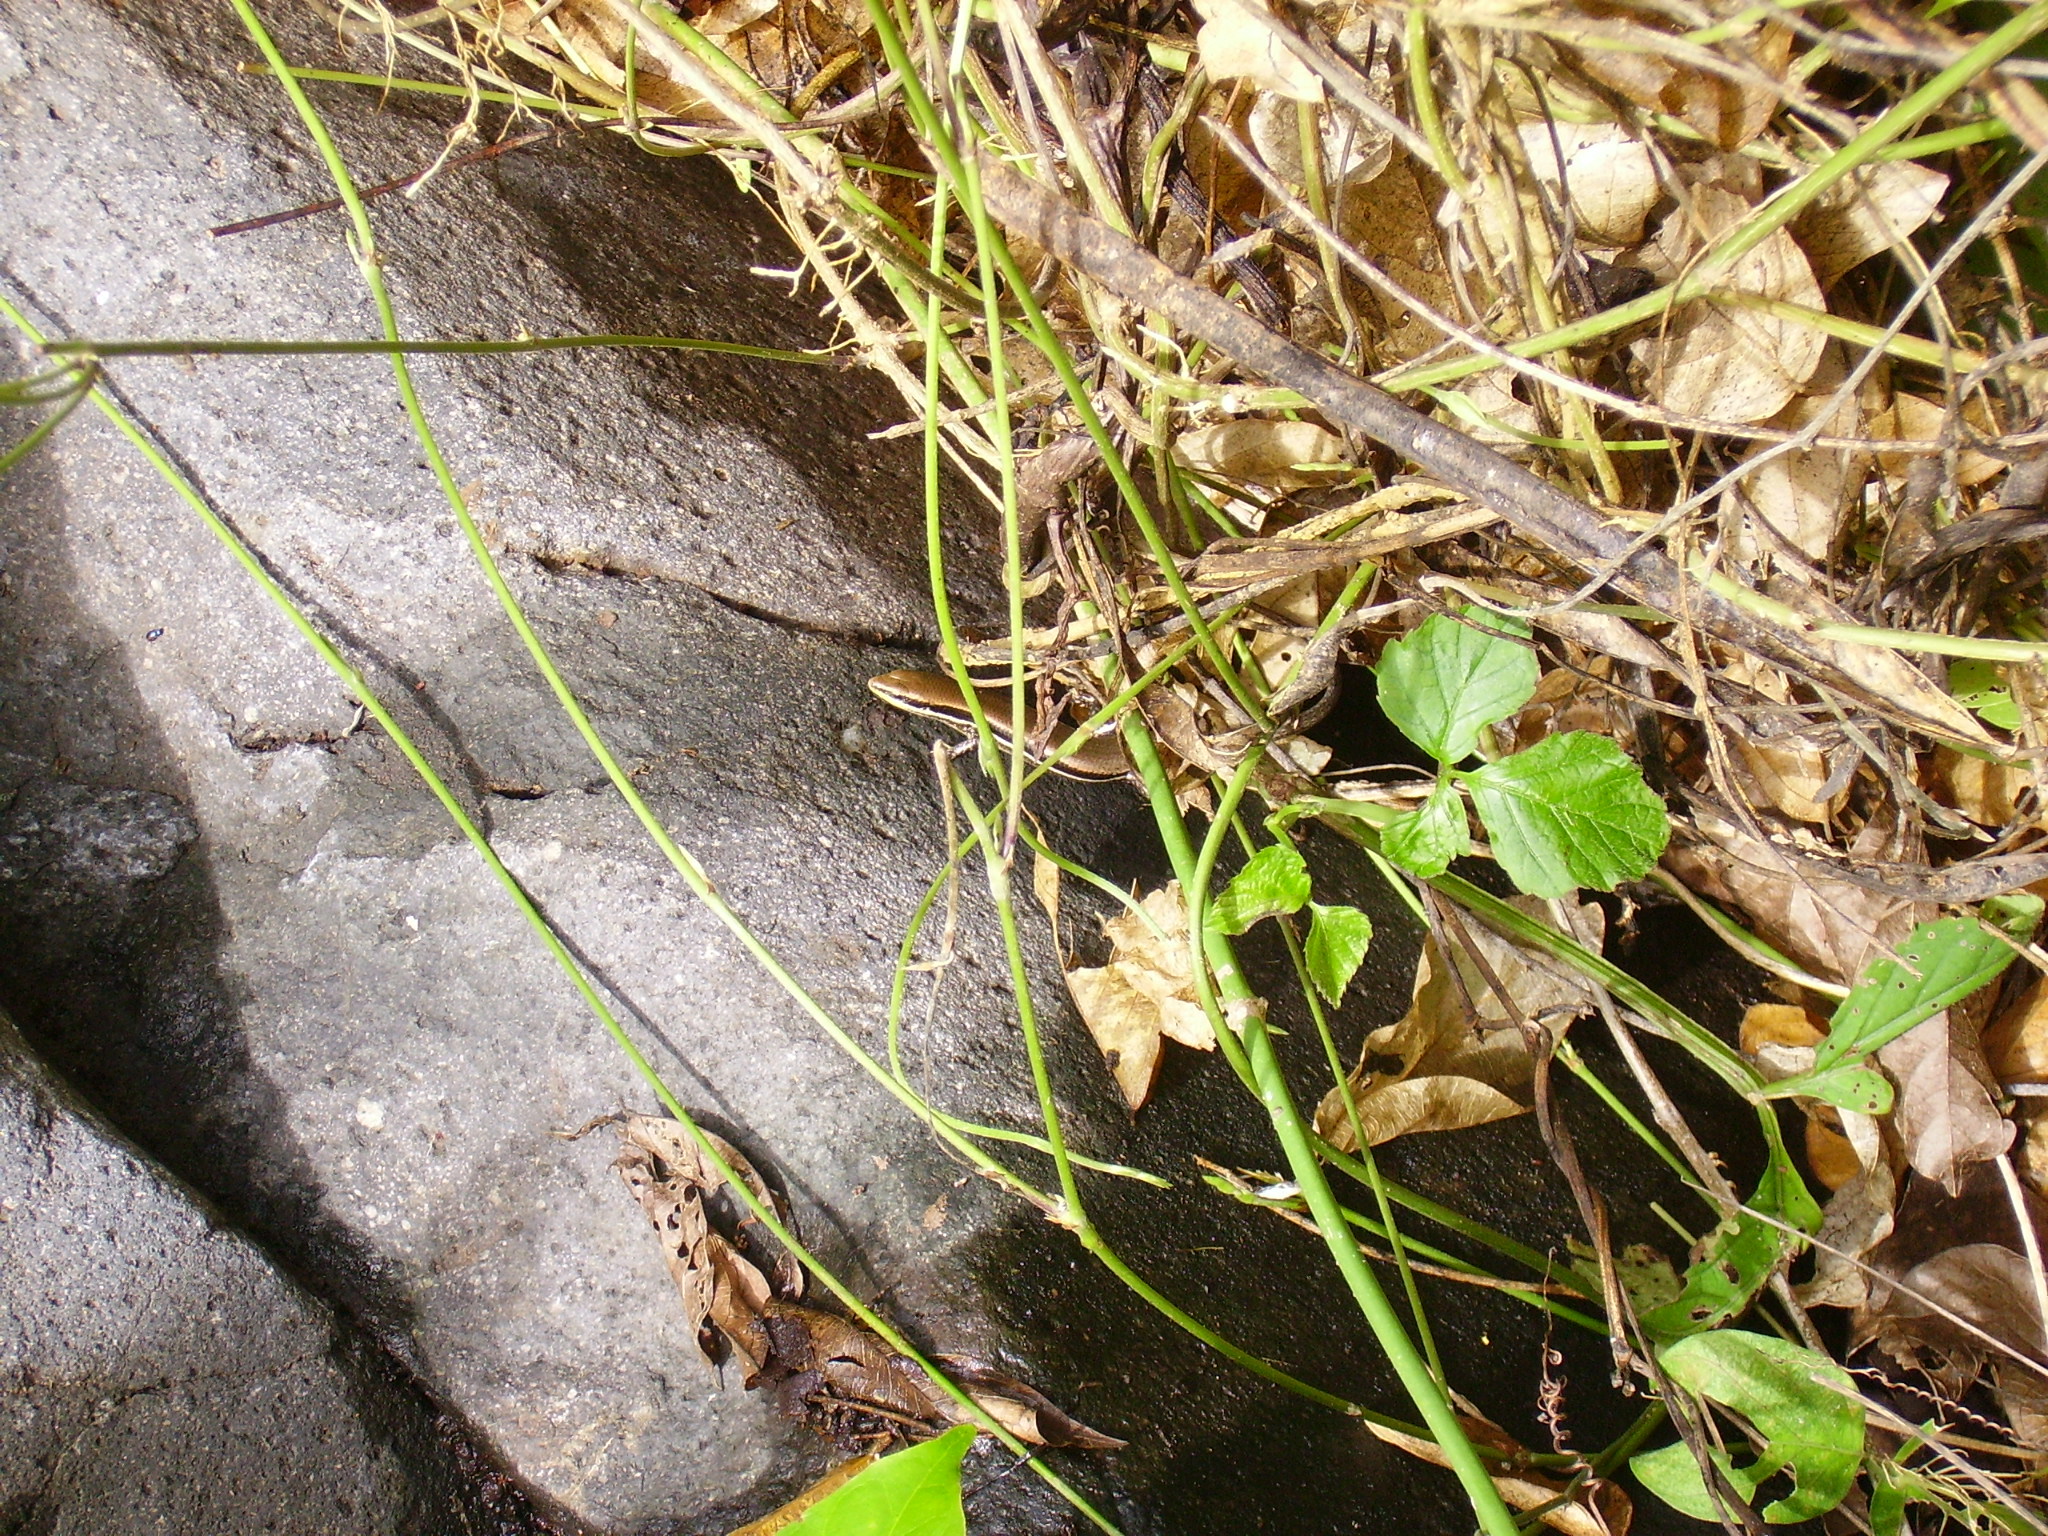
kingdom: Animalia
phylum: Chordata
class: Squamata
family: Scincidae
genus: Marisora
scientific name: Marisora brachypoda
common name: Western middle america skink
